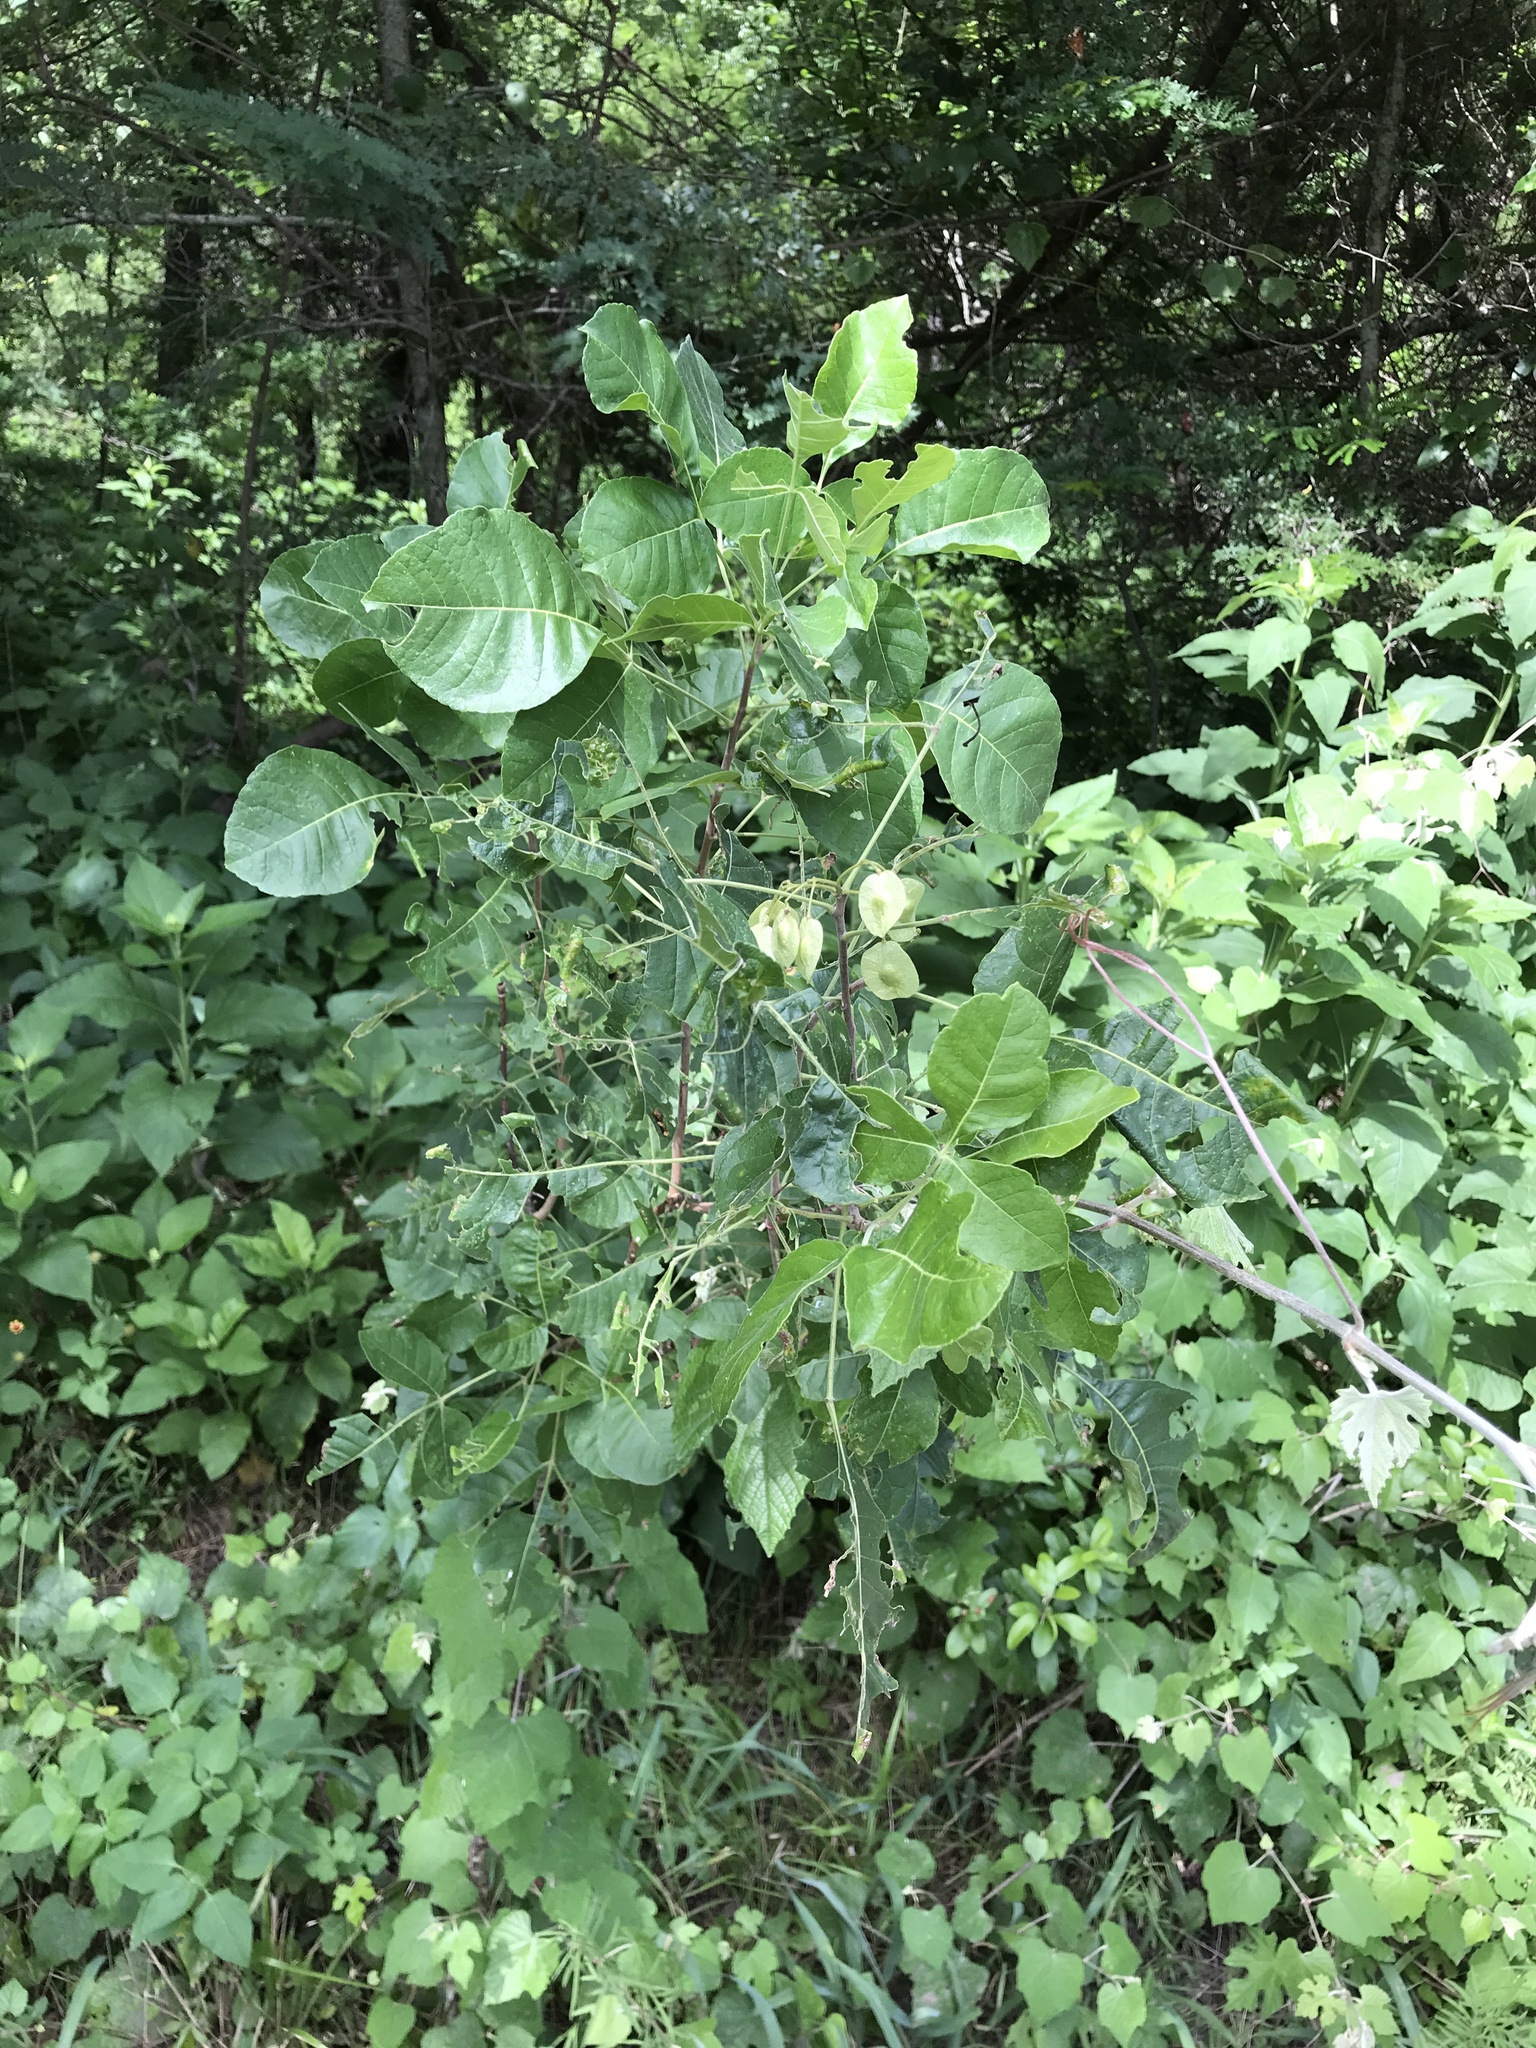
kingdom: Plantae
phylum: Tracheophyta
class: Magnoliopsida
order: Sapindales
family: Rutaceae
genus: Ptelea
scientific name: Ptelea trifoliata
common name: Common hop-tree
